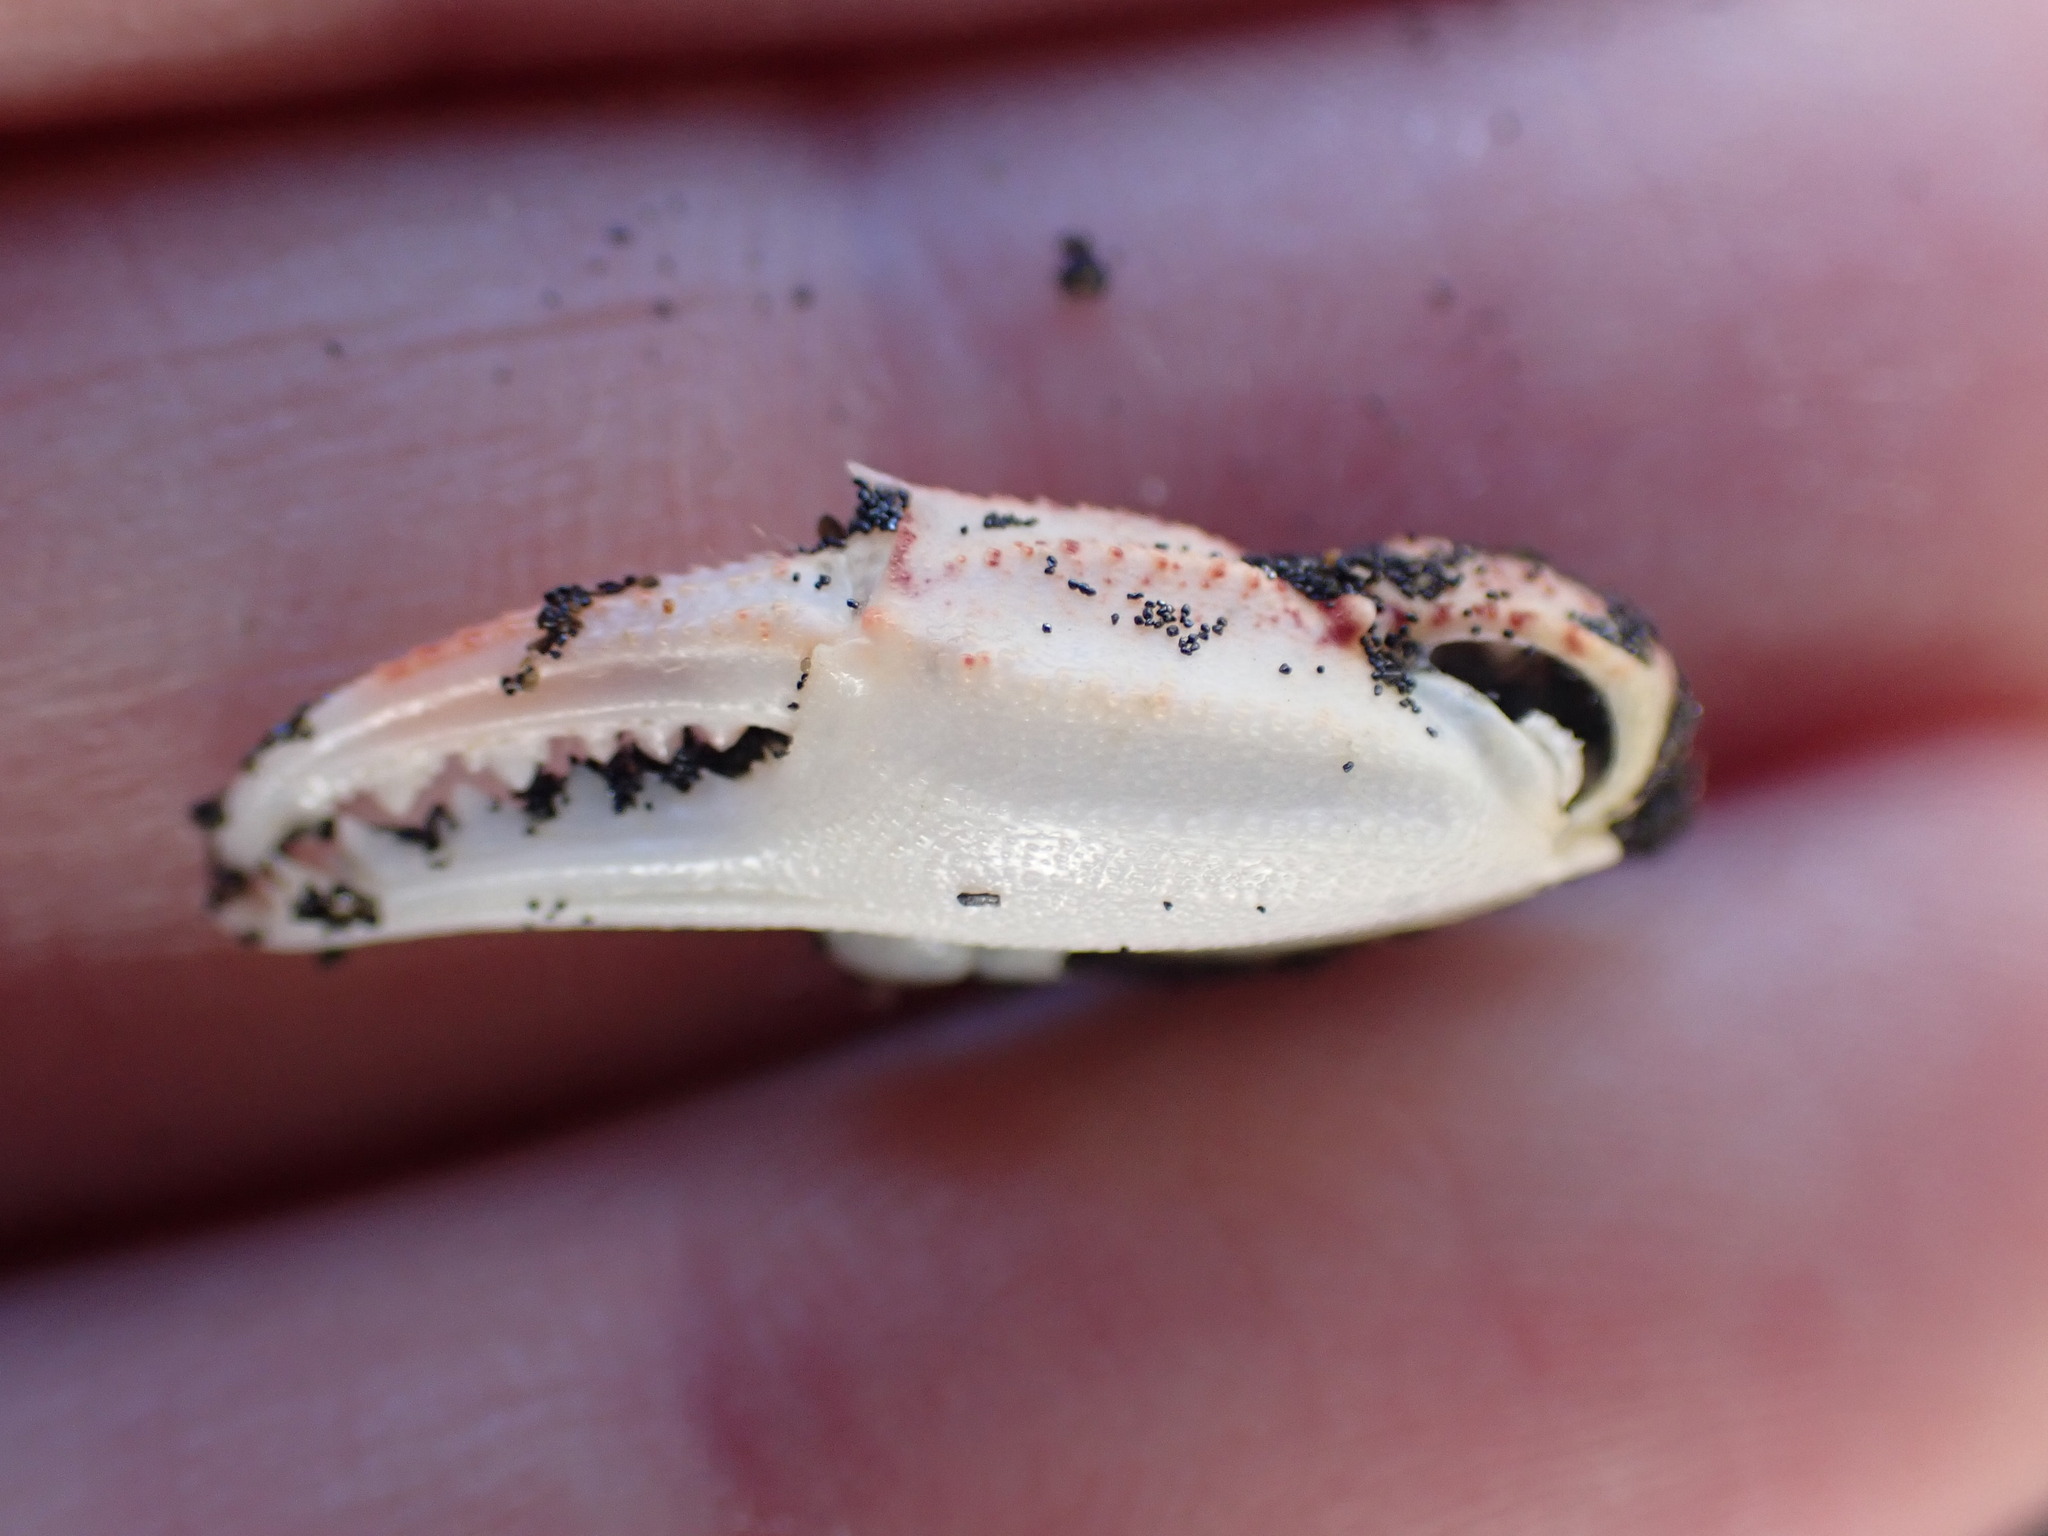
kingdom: Animalia
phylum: Arthropoda
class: Malacostraca
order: Decapoda
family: Ovalipidae
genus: Ovalipes
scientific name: Ovalipes catharus
